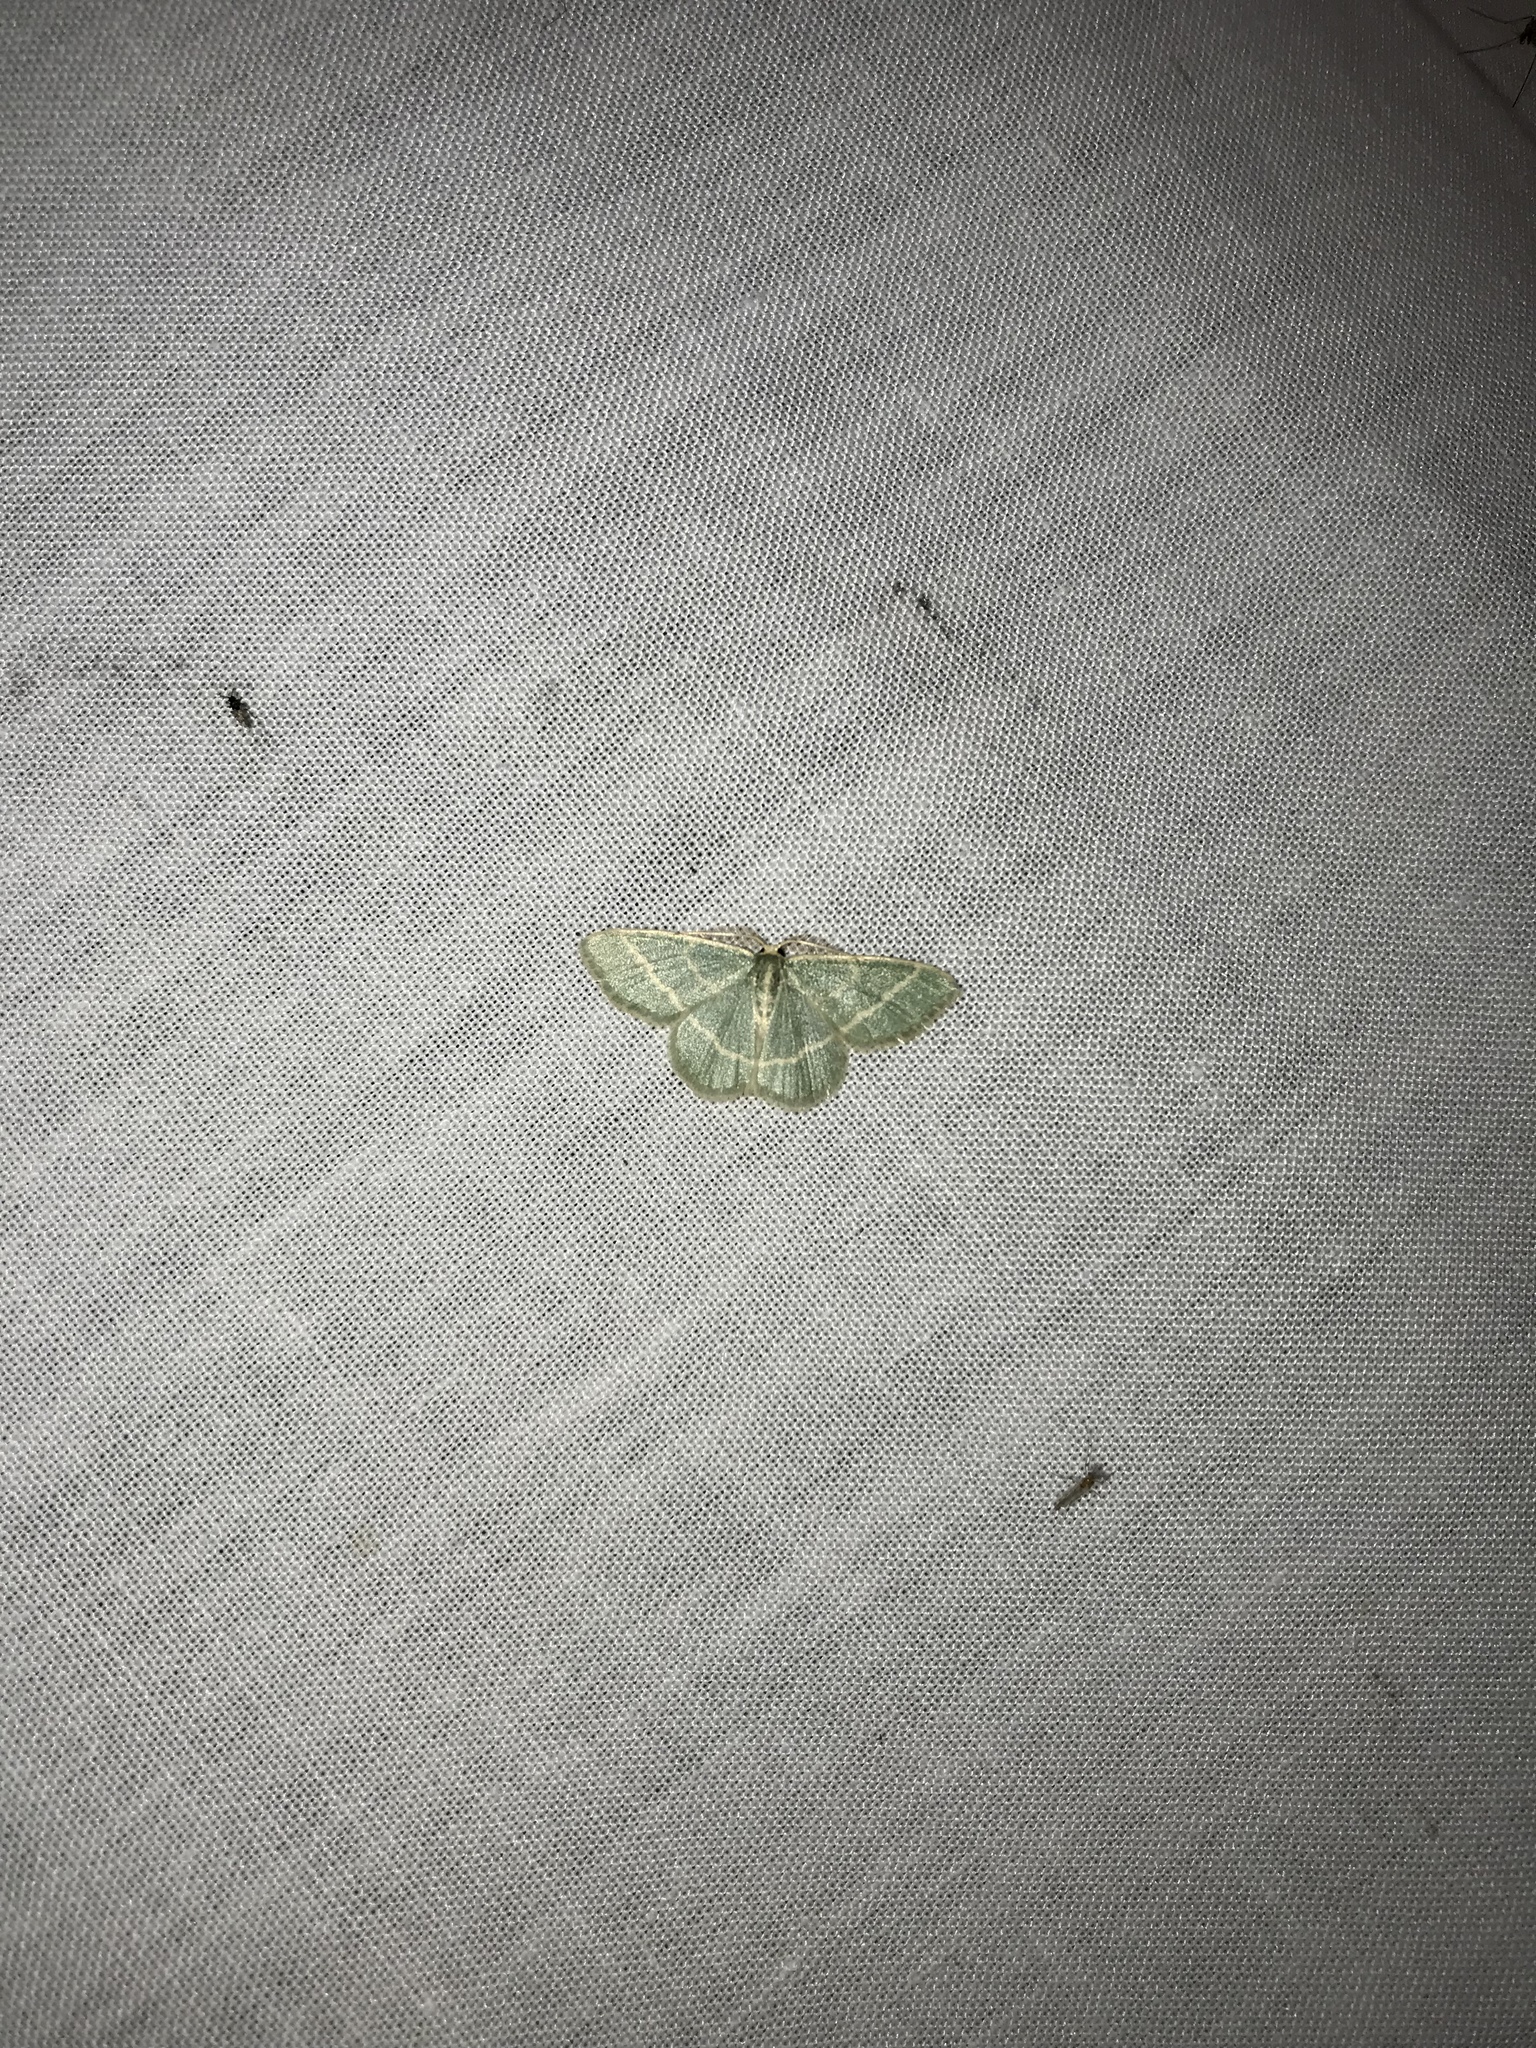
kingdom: Animalia
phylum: Arthropoda
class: Insecta
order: Lepidoptera
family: Geometridae
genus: Chlorochlamys
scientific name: Chlorochlamys chloroleucaria
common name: Blackberry looper
